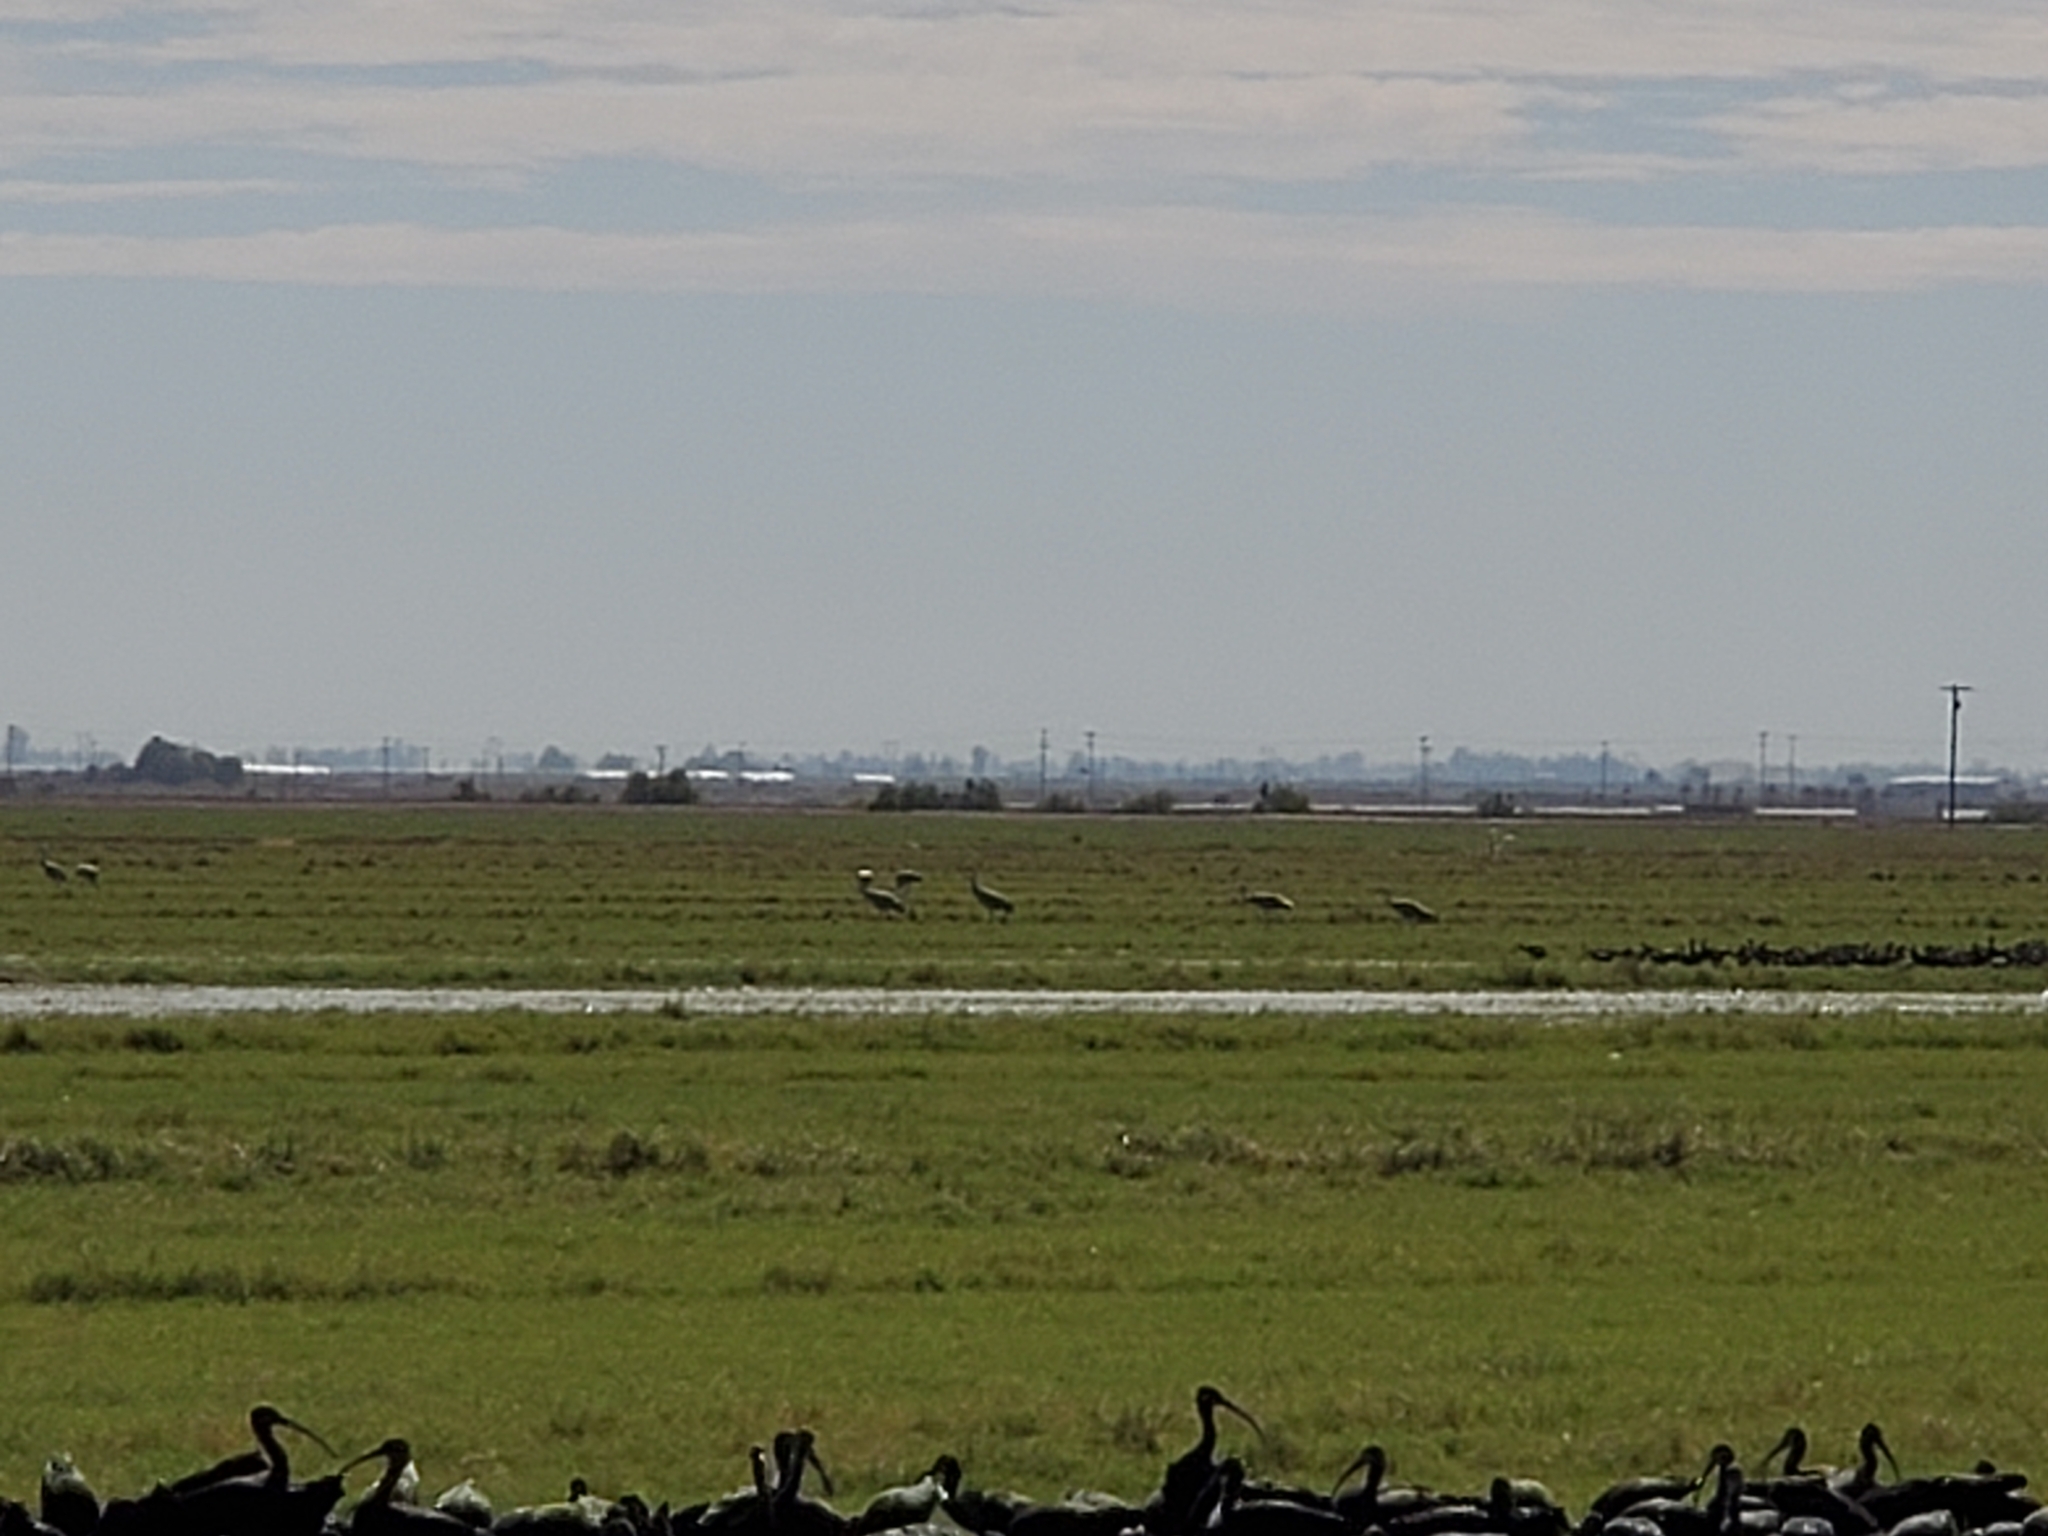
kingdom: Animalia
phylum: Chordata
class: Aves
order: Gruiformes
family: Gruidae
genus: Grus
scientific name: Grus canadensis
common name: Sandhill crane
